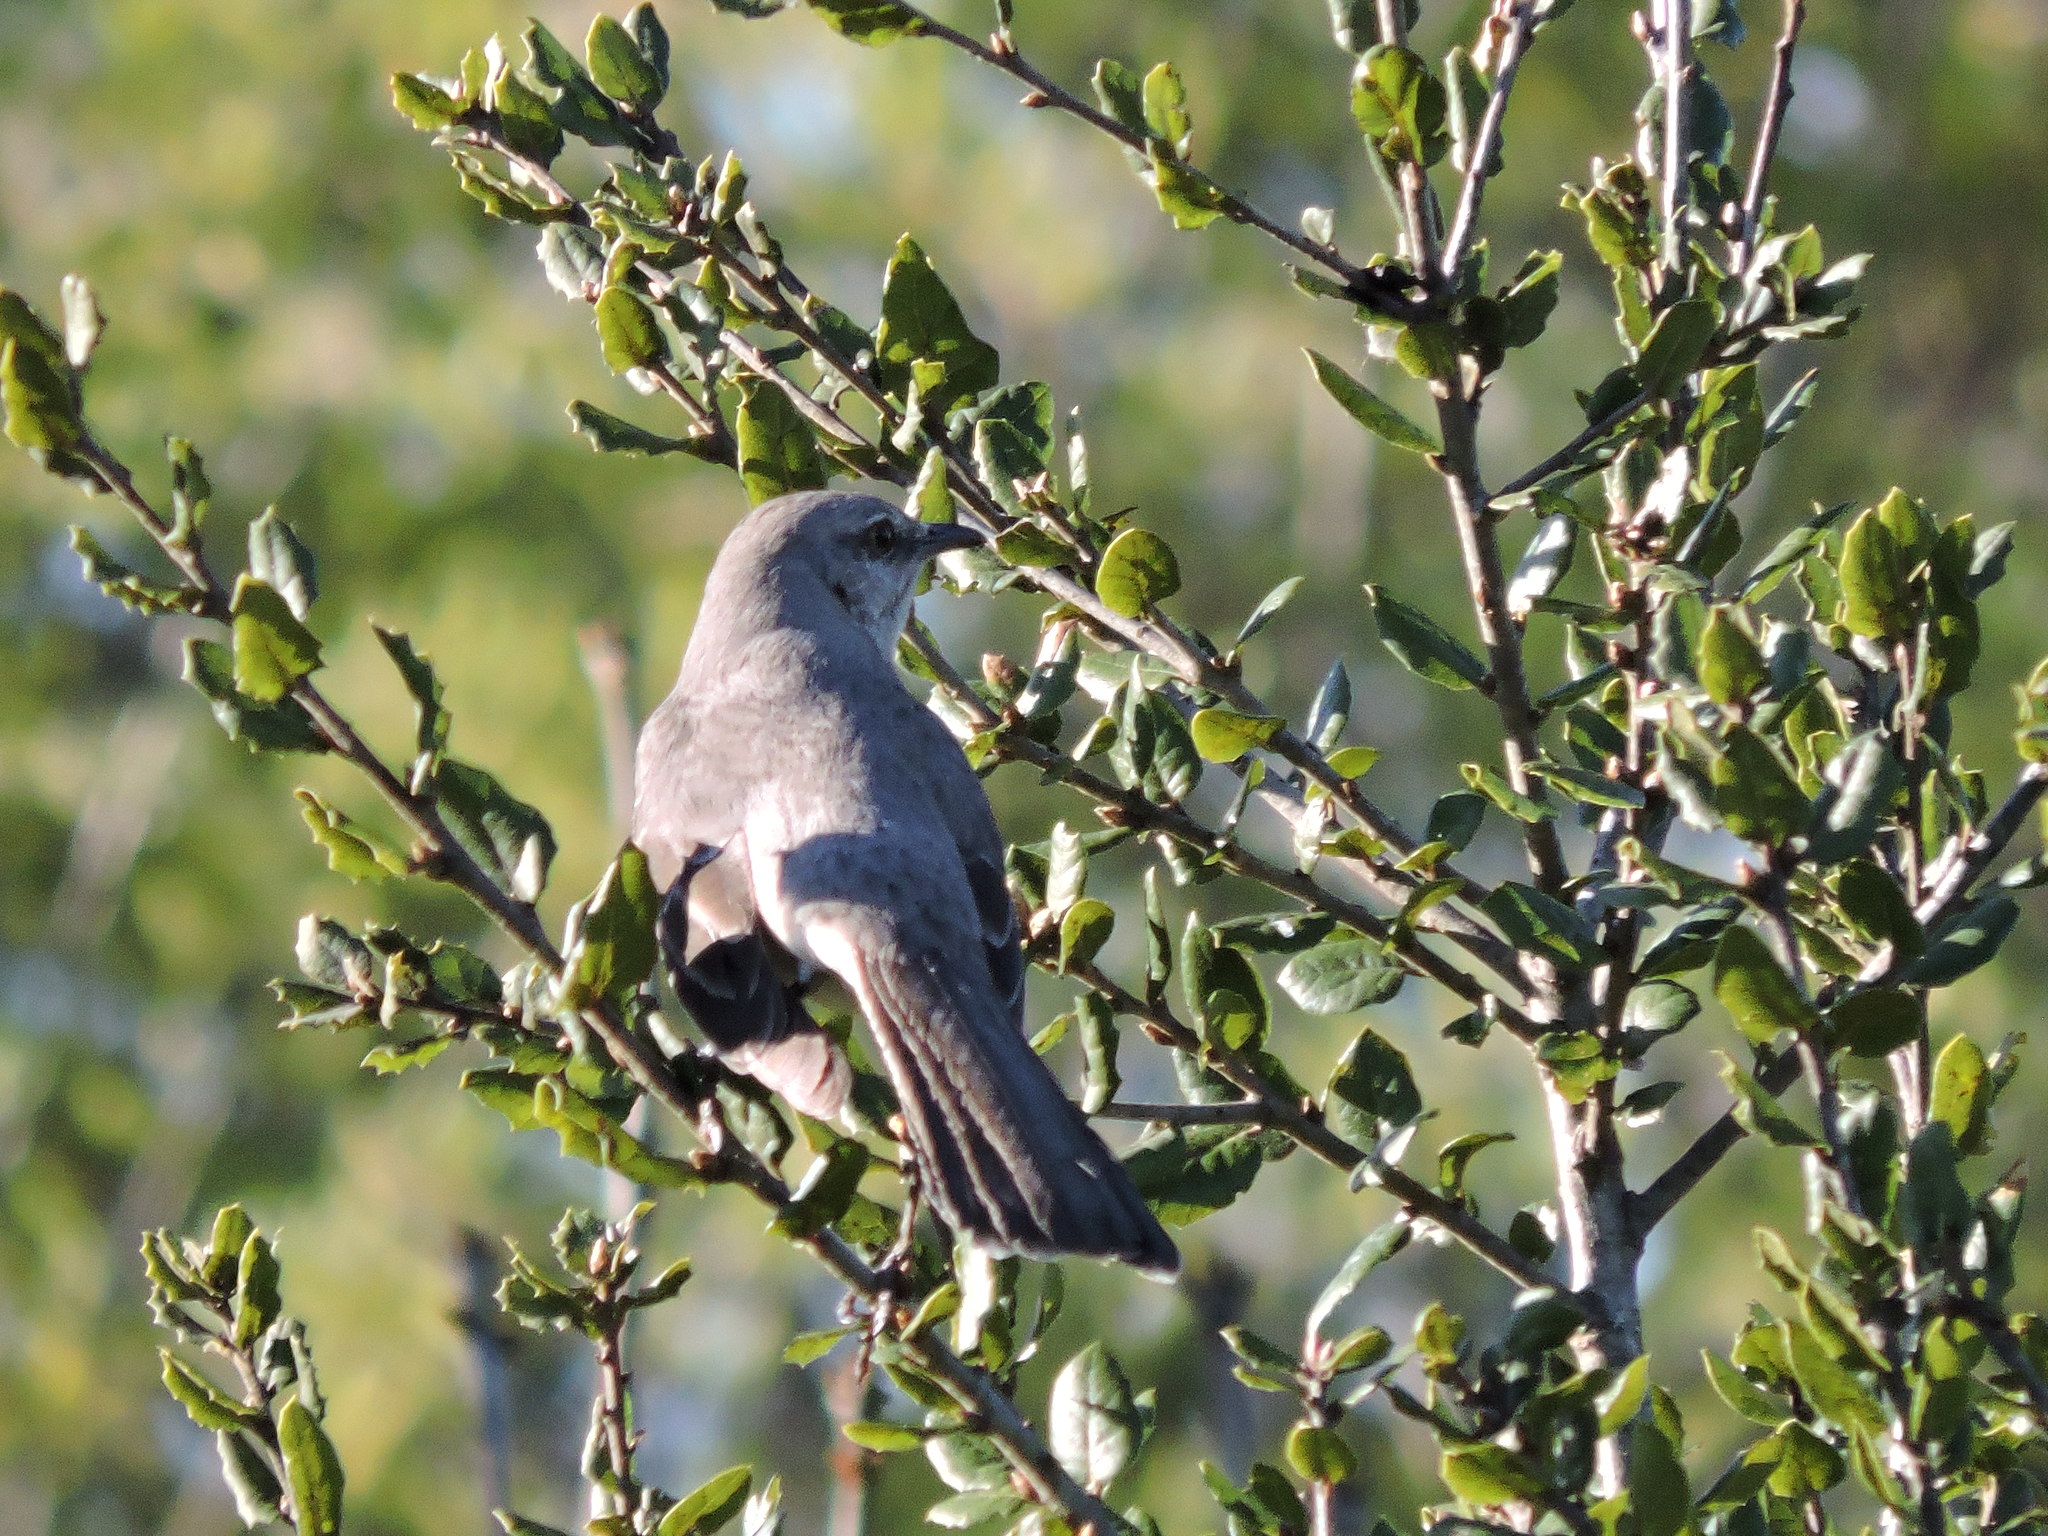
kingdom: Animalia
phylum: Chordata
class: Aves
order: Passeriformes
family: Mimidae
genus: Mimus
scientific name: Mimus polyglottos
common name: Northern mockingbird
